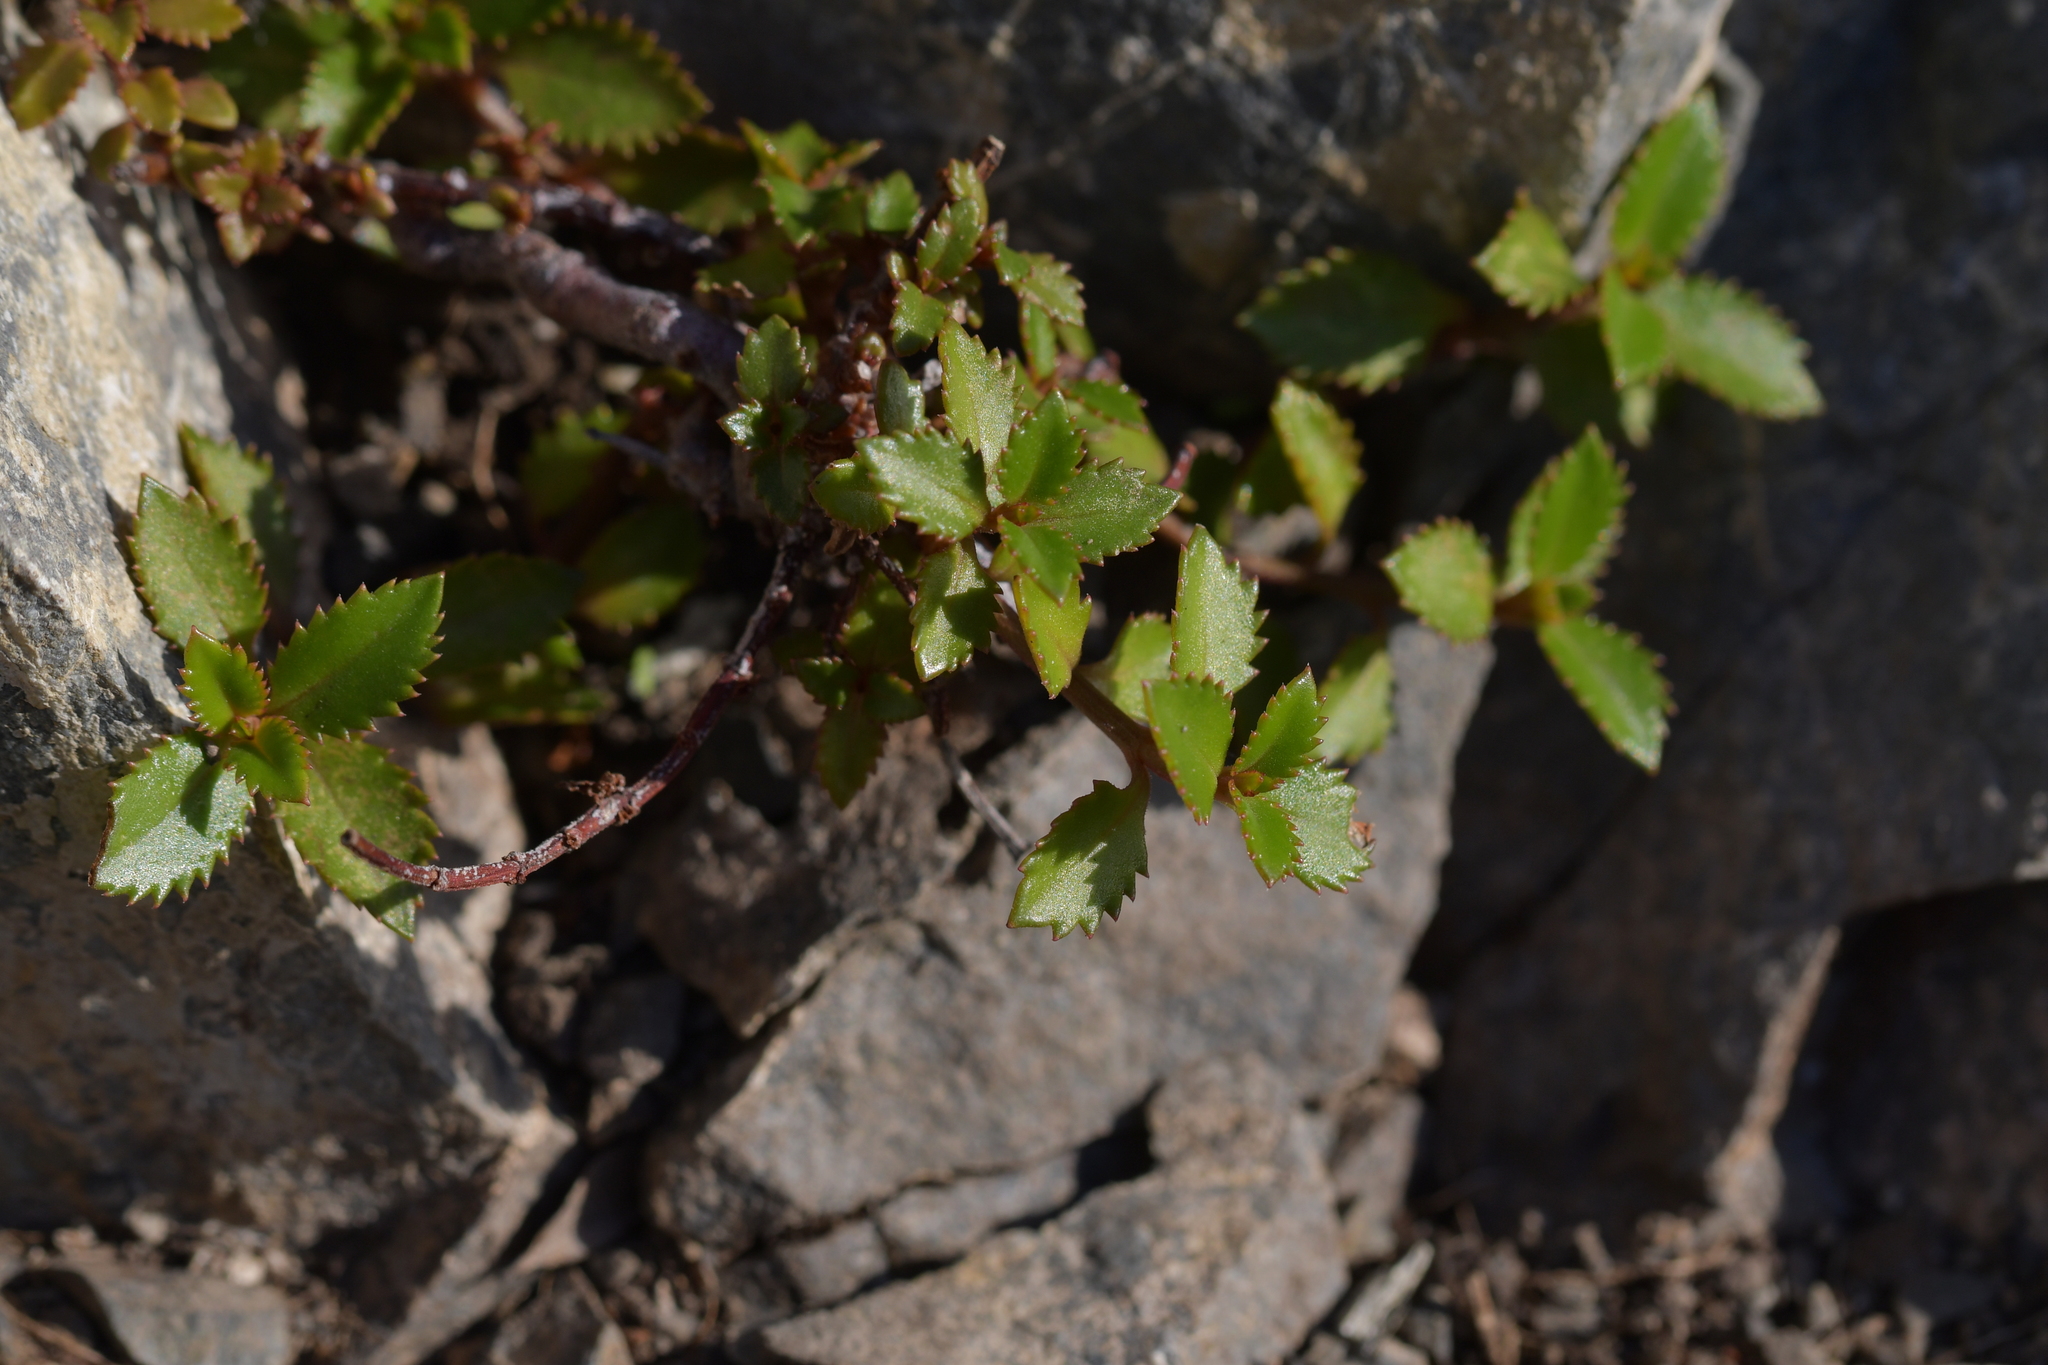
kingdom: Plantae
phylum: Tracheophyta
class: Magnoliopsida
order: Saxifragales
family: Haloragaceae
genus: Haloragis
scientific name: Haloragis erecta
